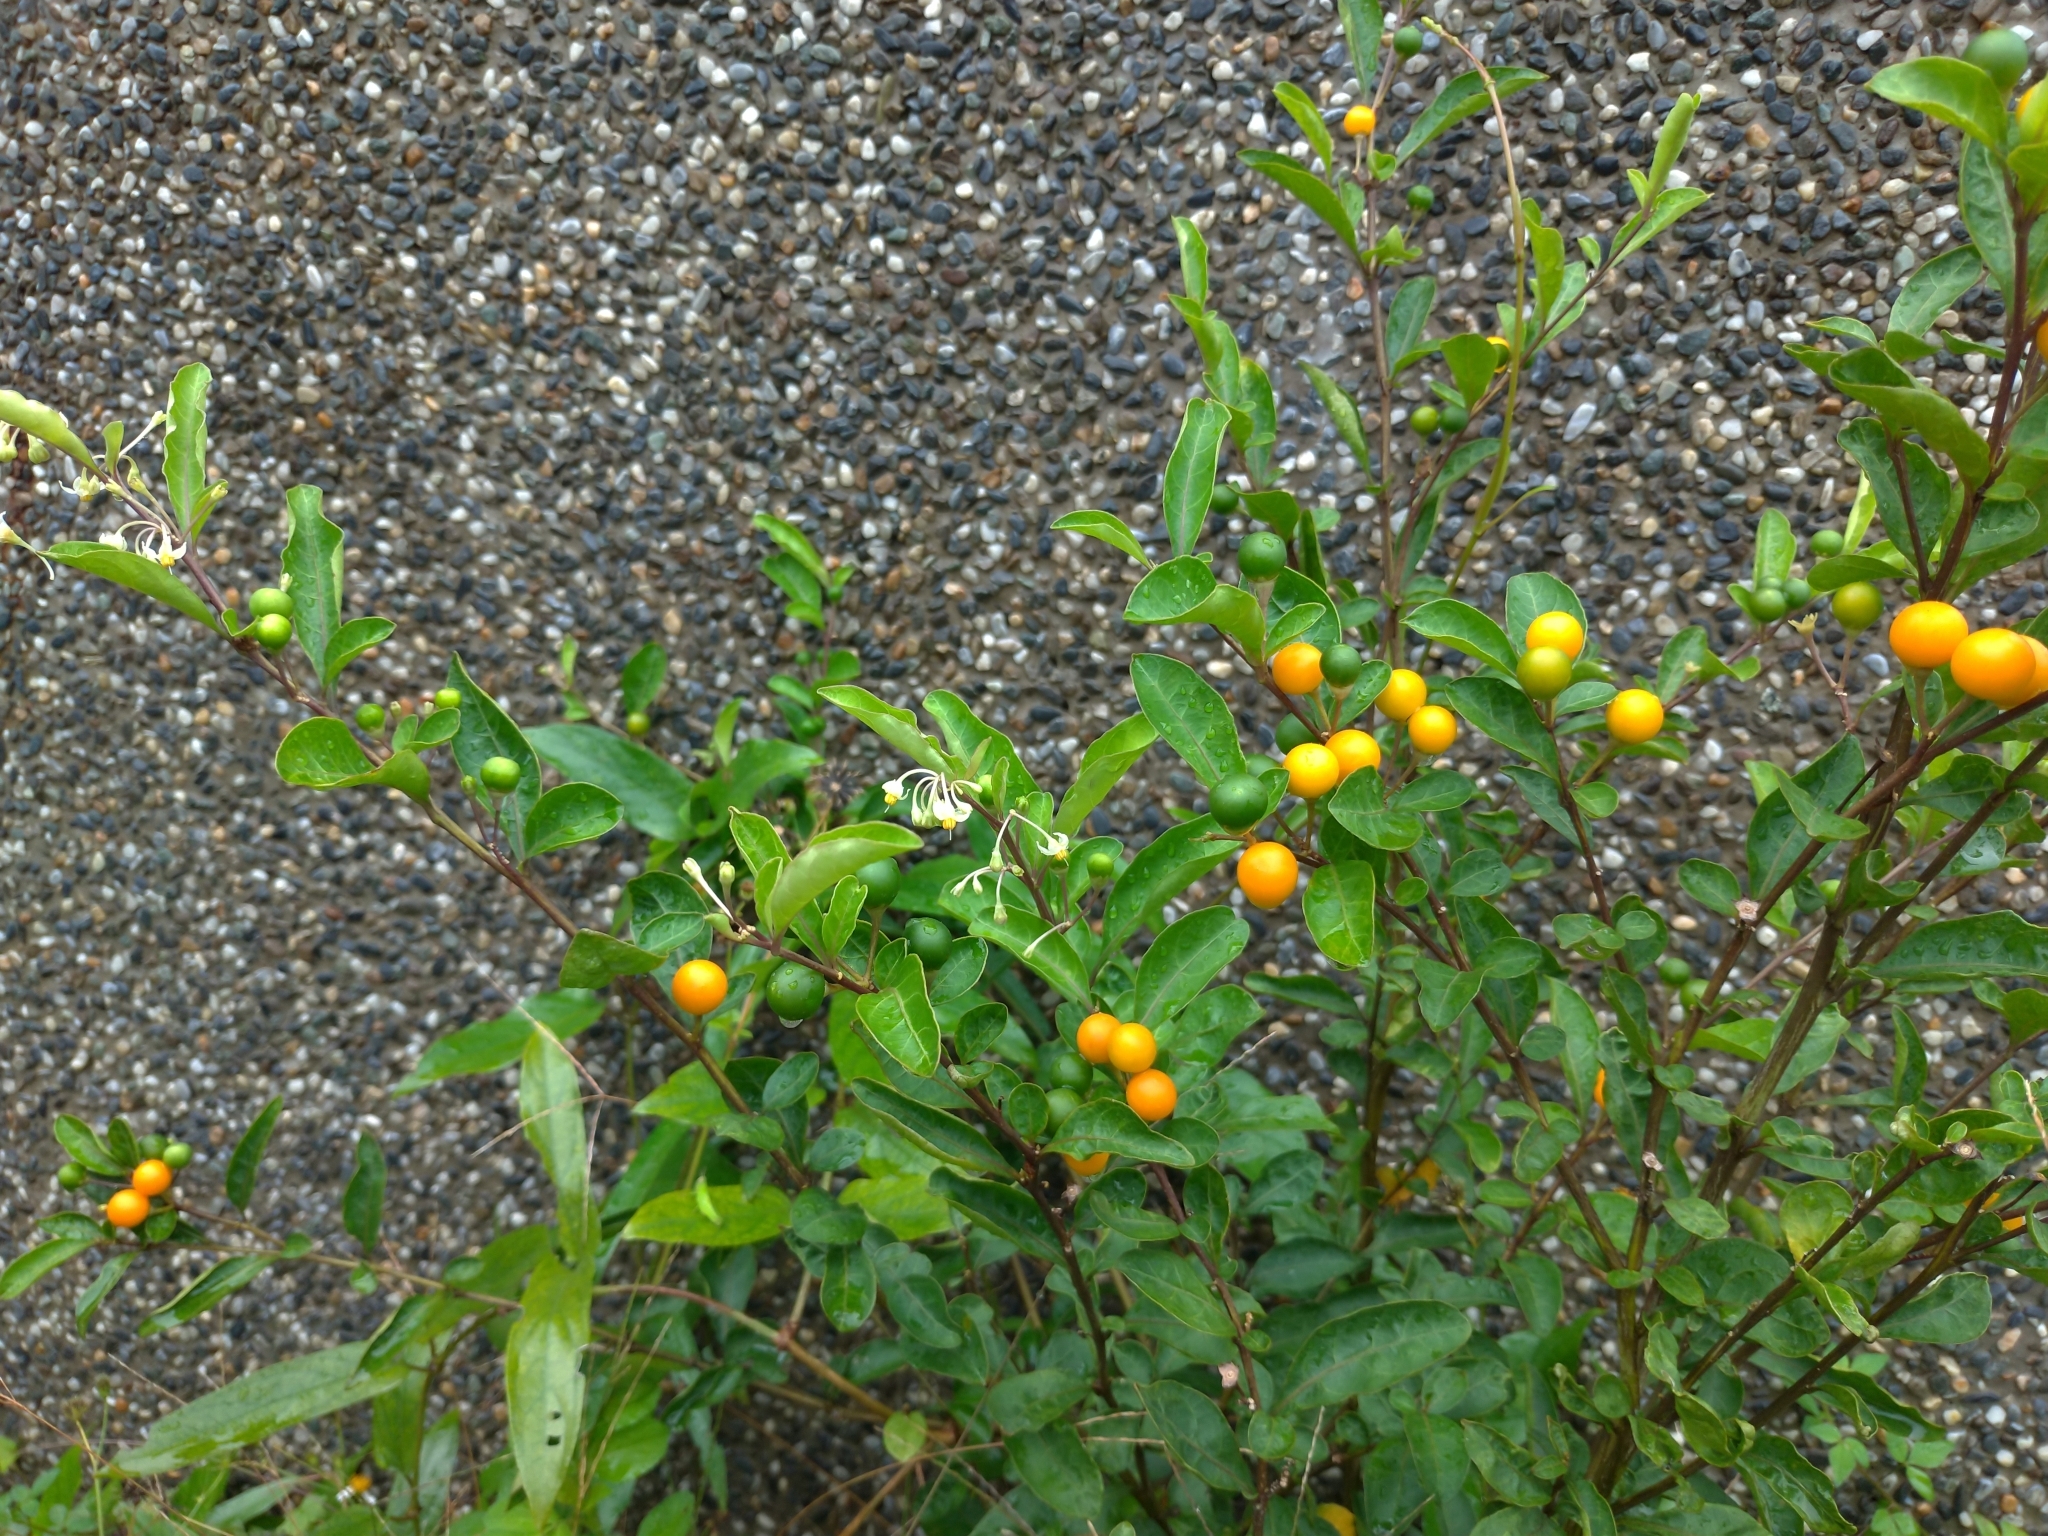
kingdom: Plantae
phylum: Tracheophyta
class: Magnoliopsida
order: Solanales
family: Solanaceae
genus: Solanum
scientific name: Solanum diphyllum
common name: Twoleaf nightshade
